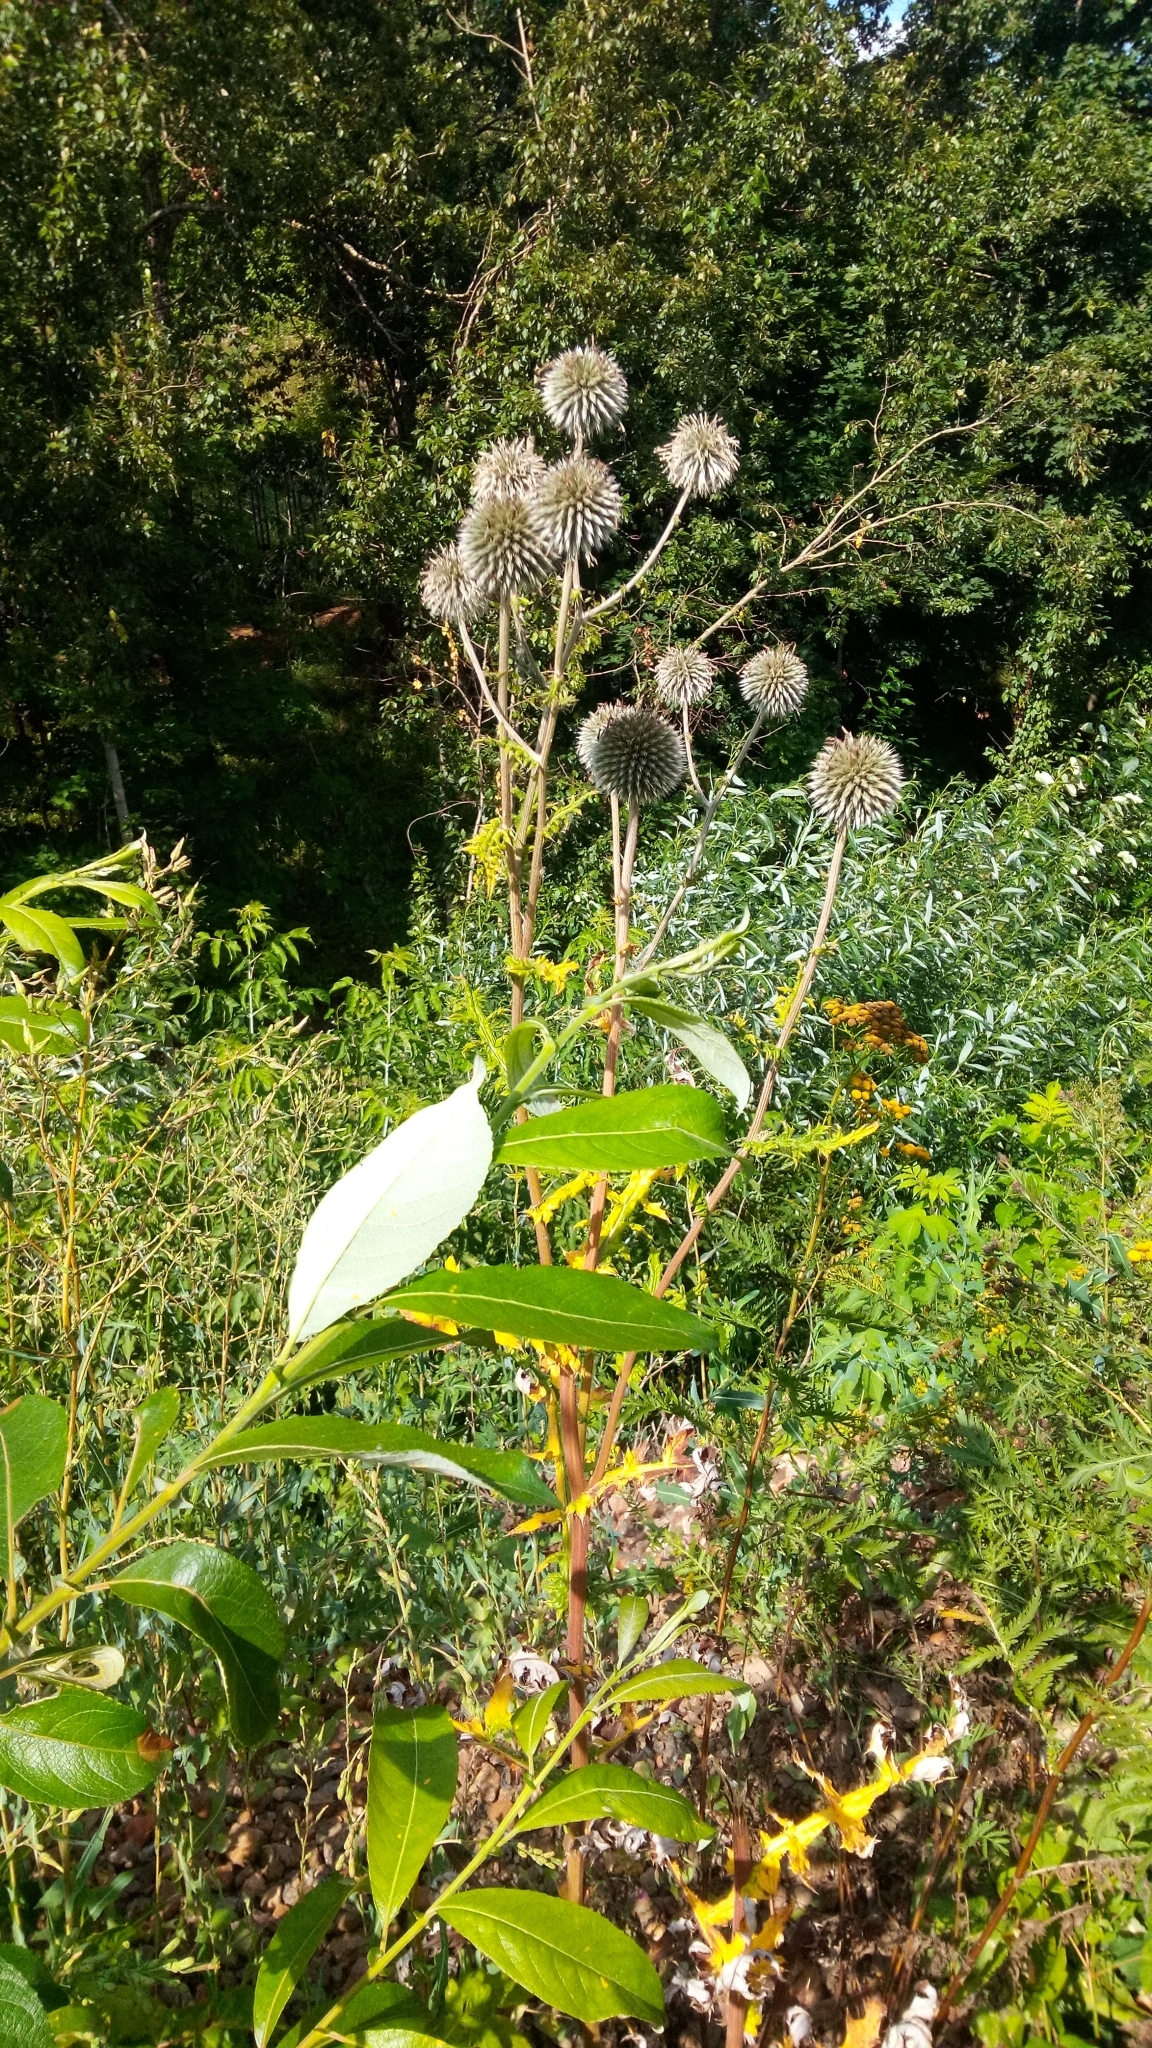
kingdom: Plantae
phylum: Tracheophyta
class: Magnoliopsida
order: Asterales
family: Asteraceae
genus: Echinops
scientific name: Echinops sphaerocephalus
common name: Glandular globe-thistle
